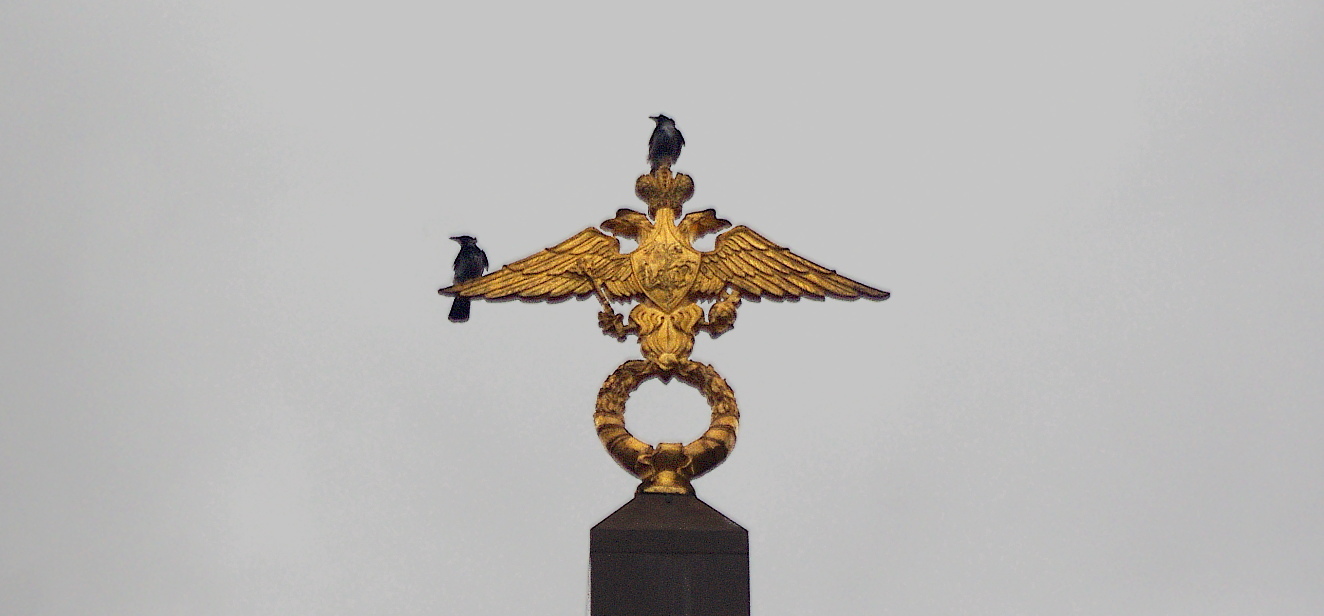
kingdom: Animalia
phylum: Chordata
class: Aves
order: Passeriformes
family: Corvidae
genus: Corvus
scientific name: Corvus cornix
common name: Hooded crow
